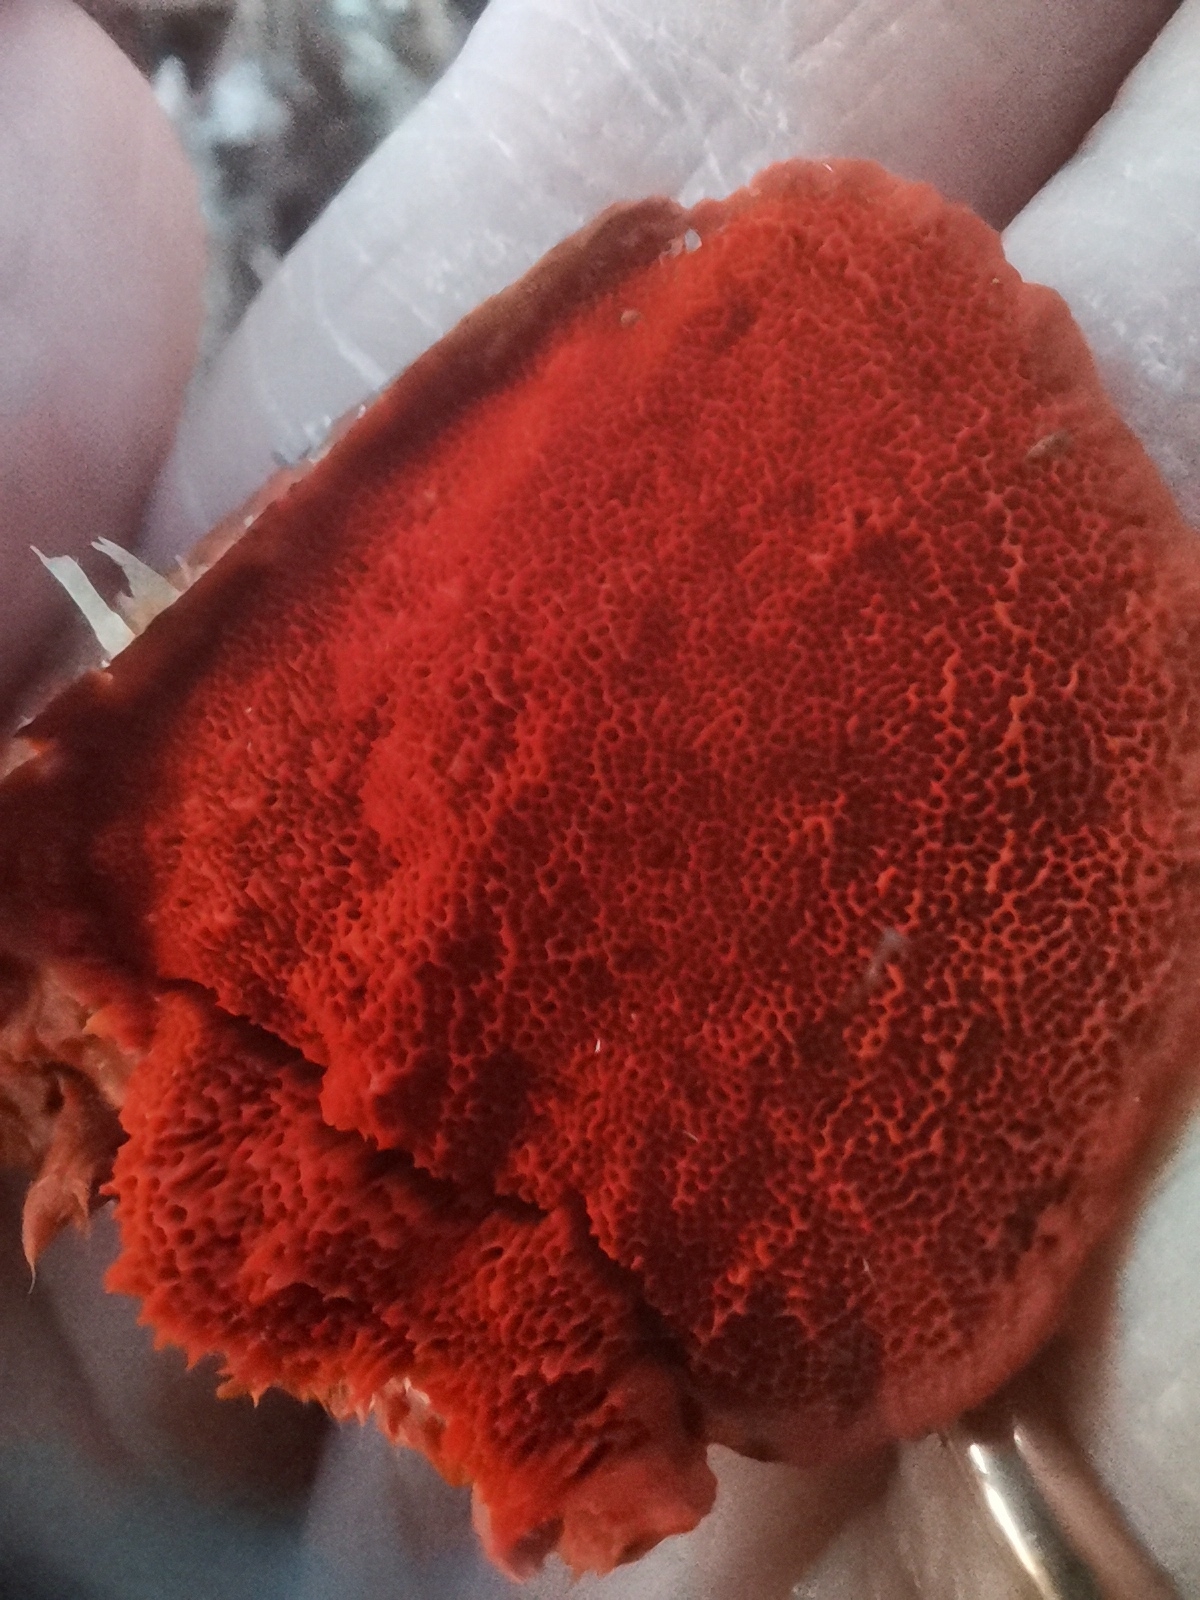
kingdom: Fungi
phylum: Basidiomycota
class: Agaricomycetes
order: Polyporales
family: Polyporaceae
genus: Trametes
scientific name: Trametes cinnabarina
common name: Northern cinnabar polypore
